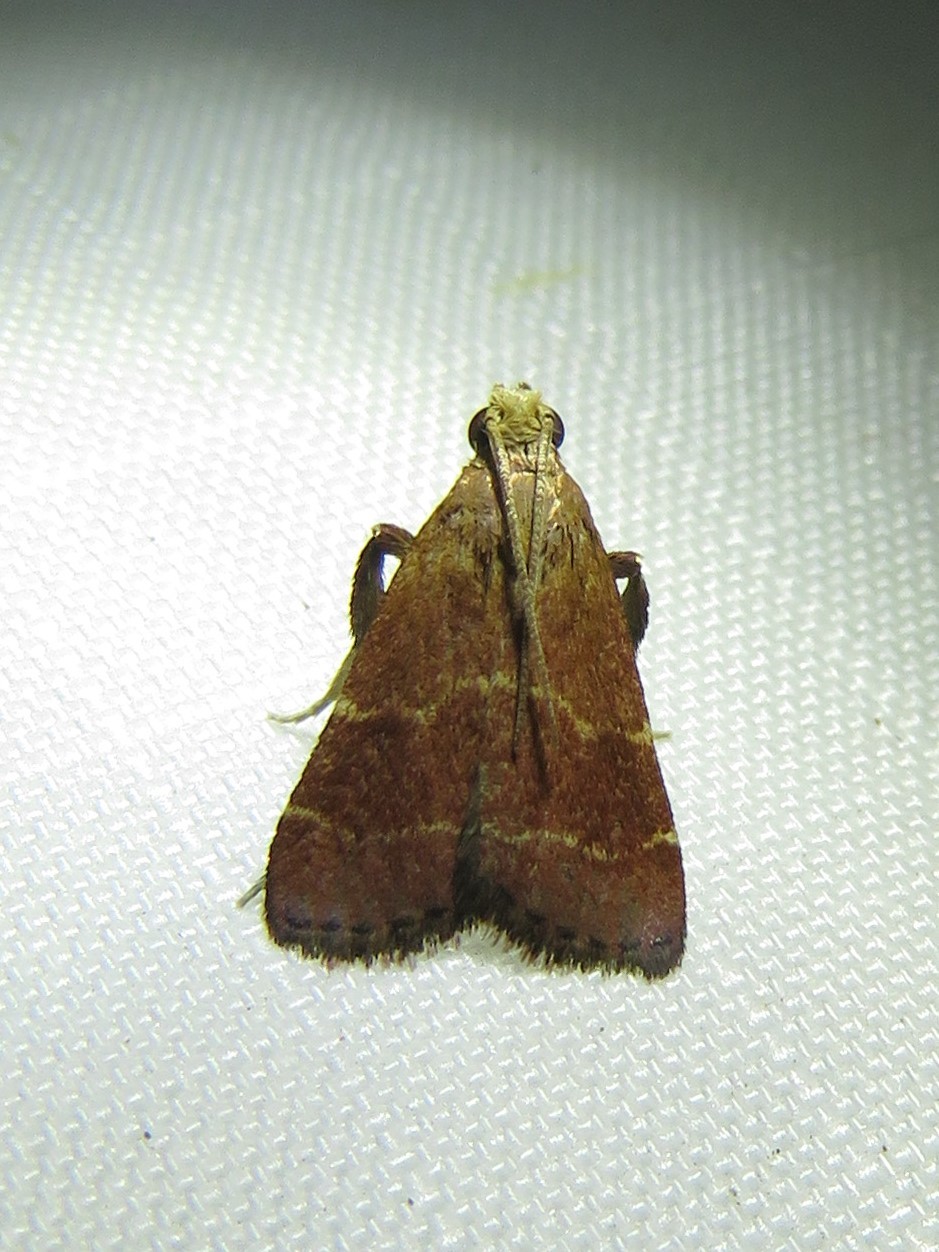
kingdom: Animalia
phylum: Arthropoda
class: Insecta
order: Lepidoptera
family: Pyralidae
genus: Arta
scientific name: Arta statalis
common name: Posturing arta moth
